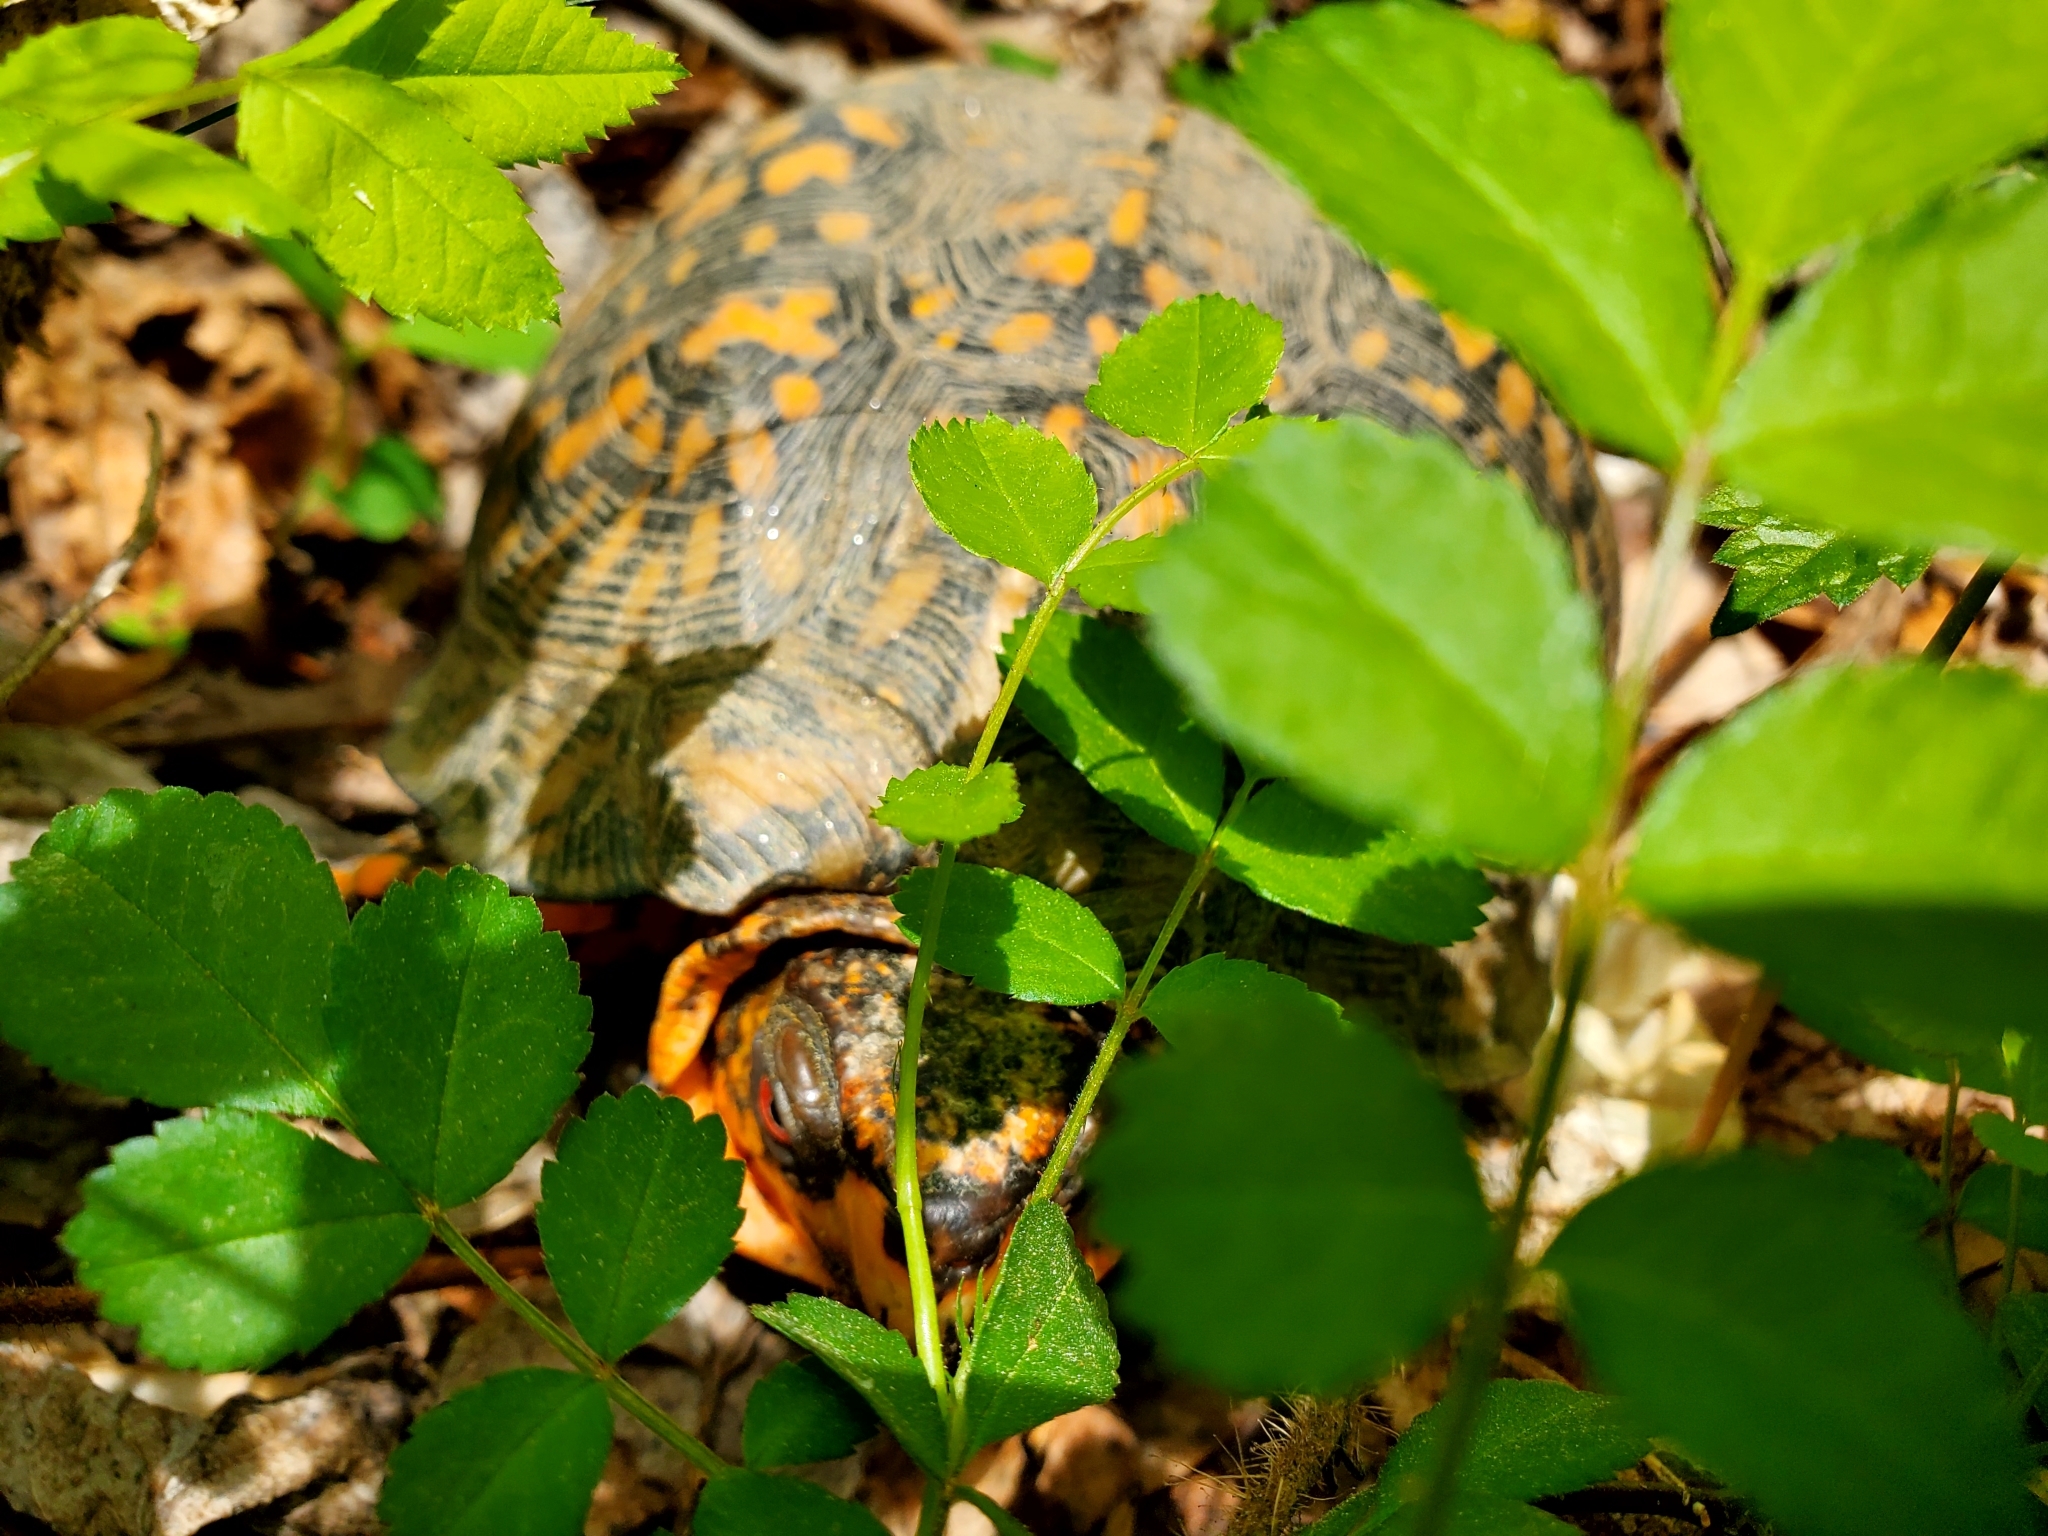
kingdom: Animalia
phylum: Chordata
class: Testudines
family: Emydidae
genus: Terrapene
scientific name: Terrapene carolina
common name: Common box turtle
